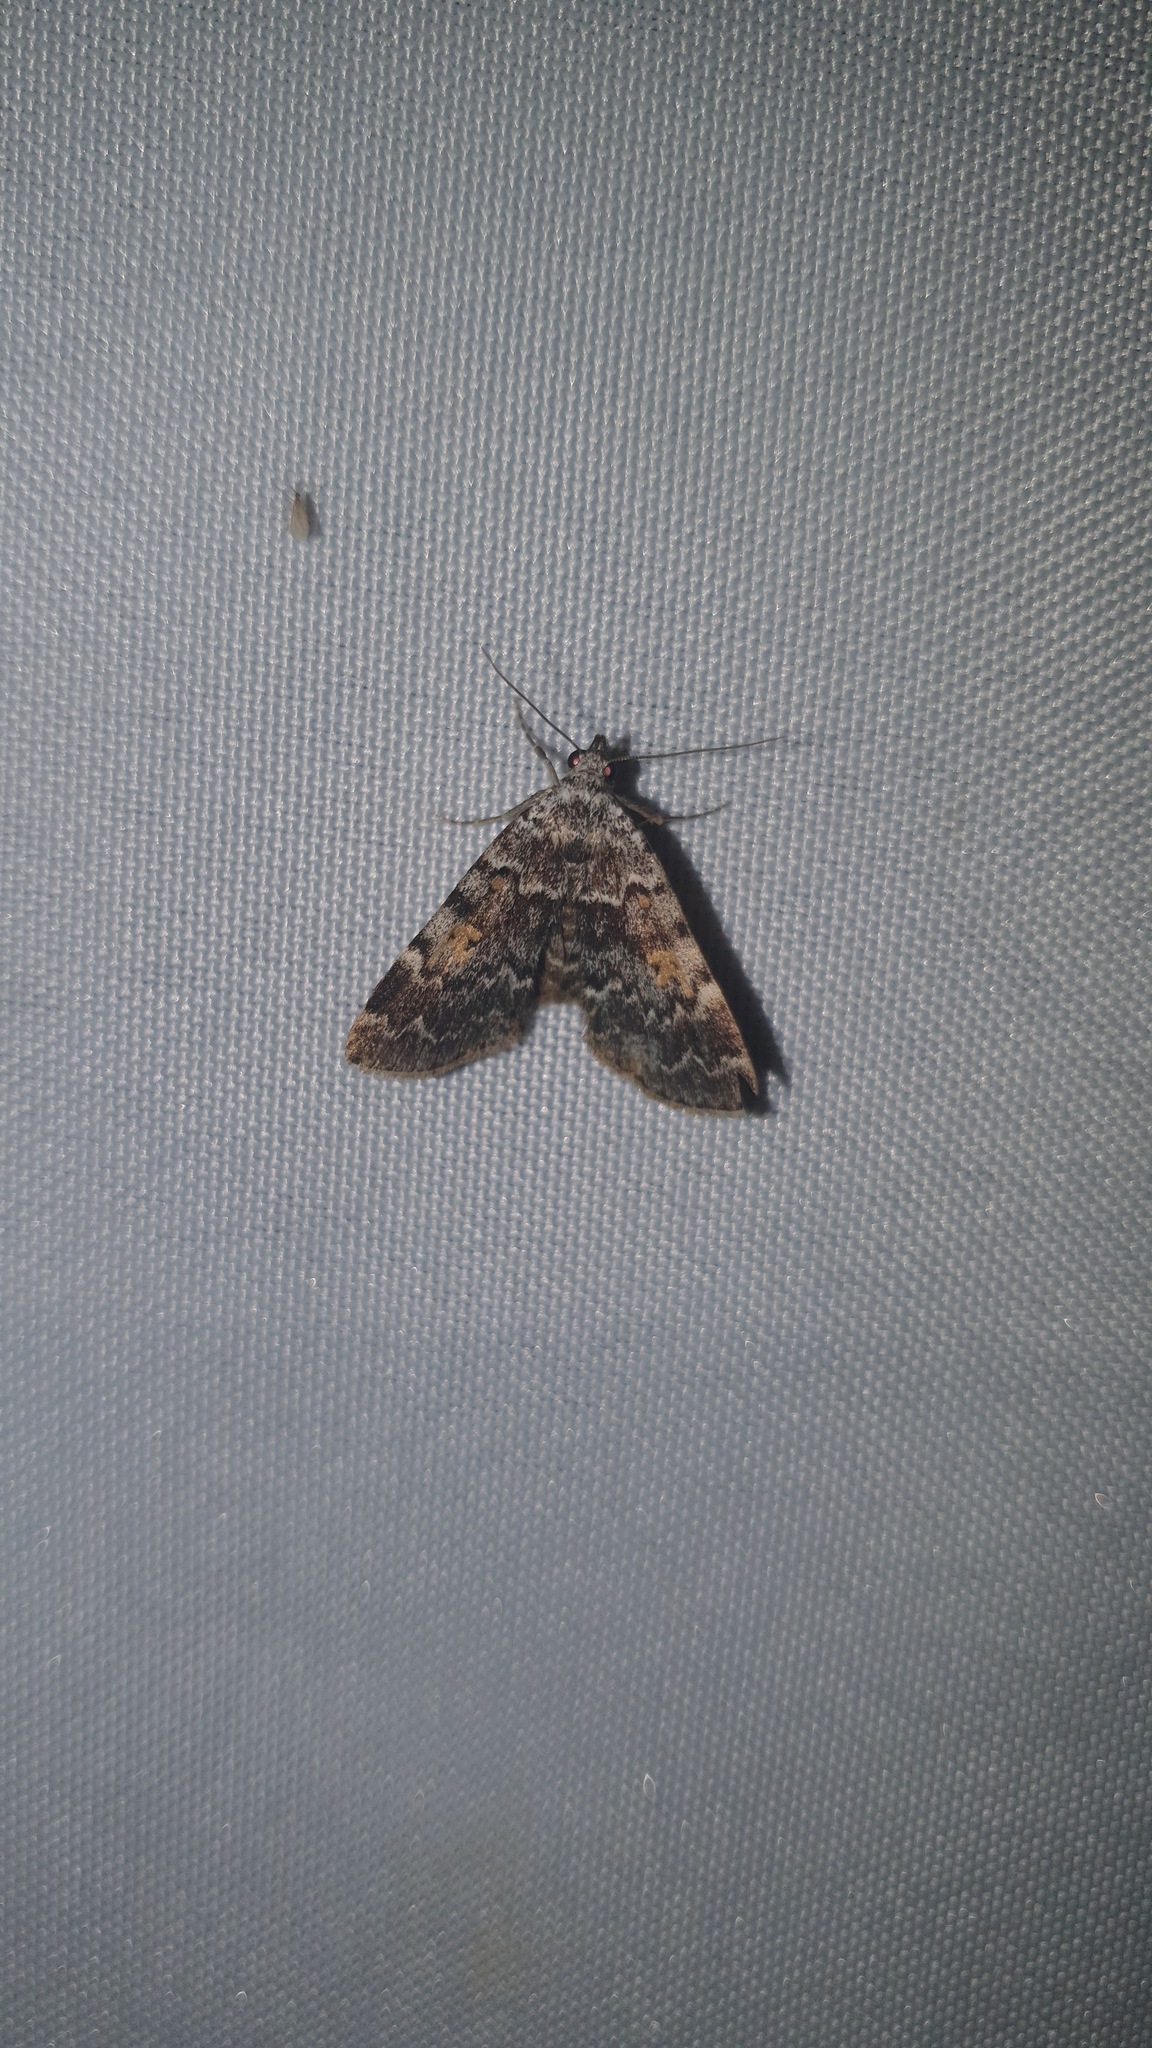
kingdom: Animalia
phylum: Arthropoda
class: Insecta
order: Lepidoptera
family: Erebidae
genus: Idia
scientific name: Idia calvaria
